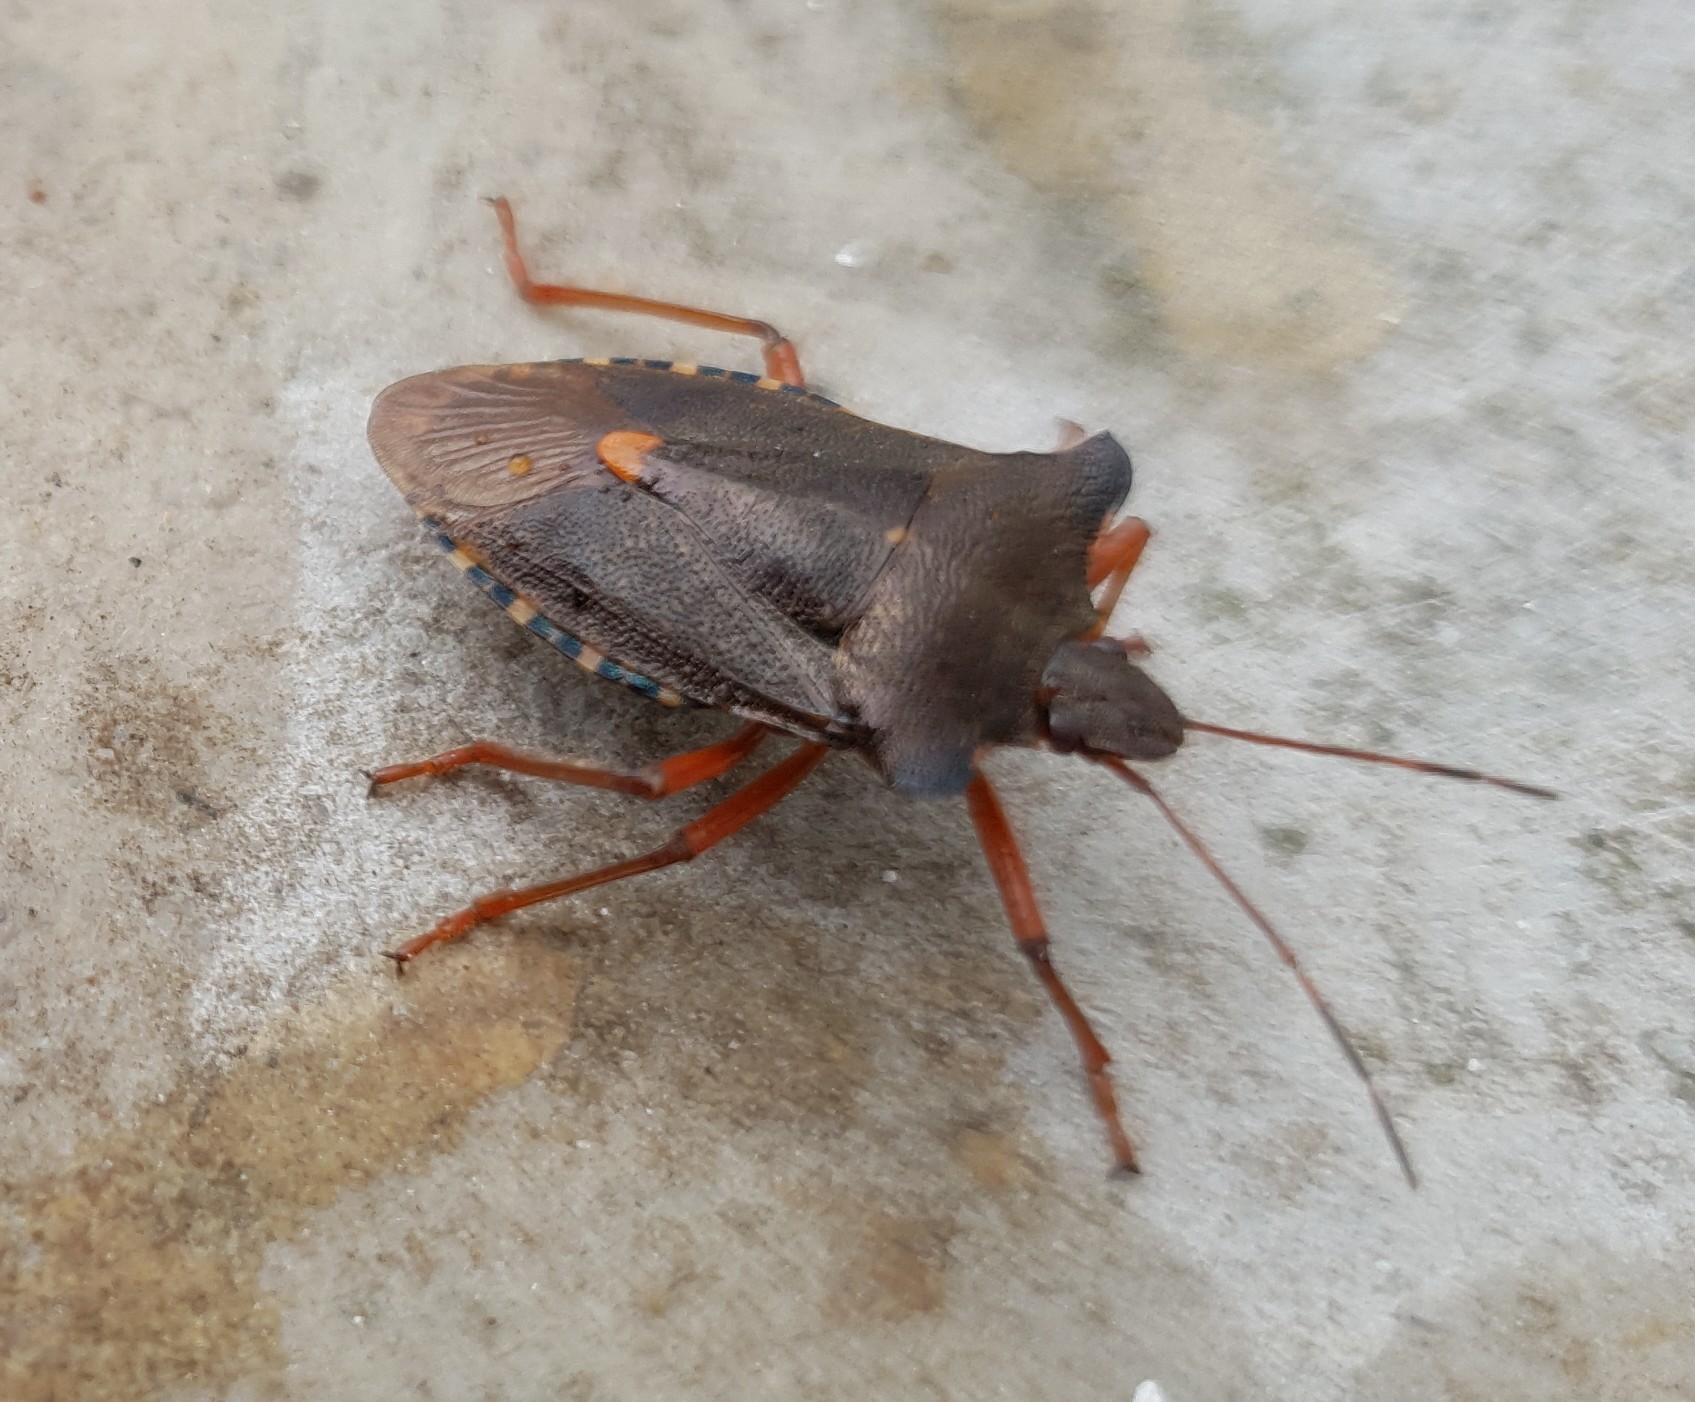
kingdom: Animalia
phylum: Arthropoda
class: Insecta
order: Hemiptera
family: Pentatomidae
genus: Pentatoma
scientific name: Pentatoma rufipes
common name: Forest bug
